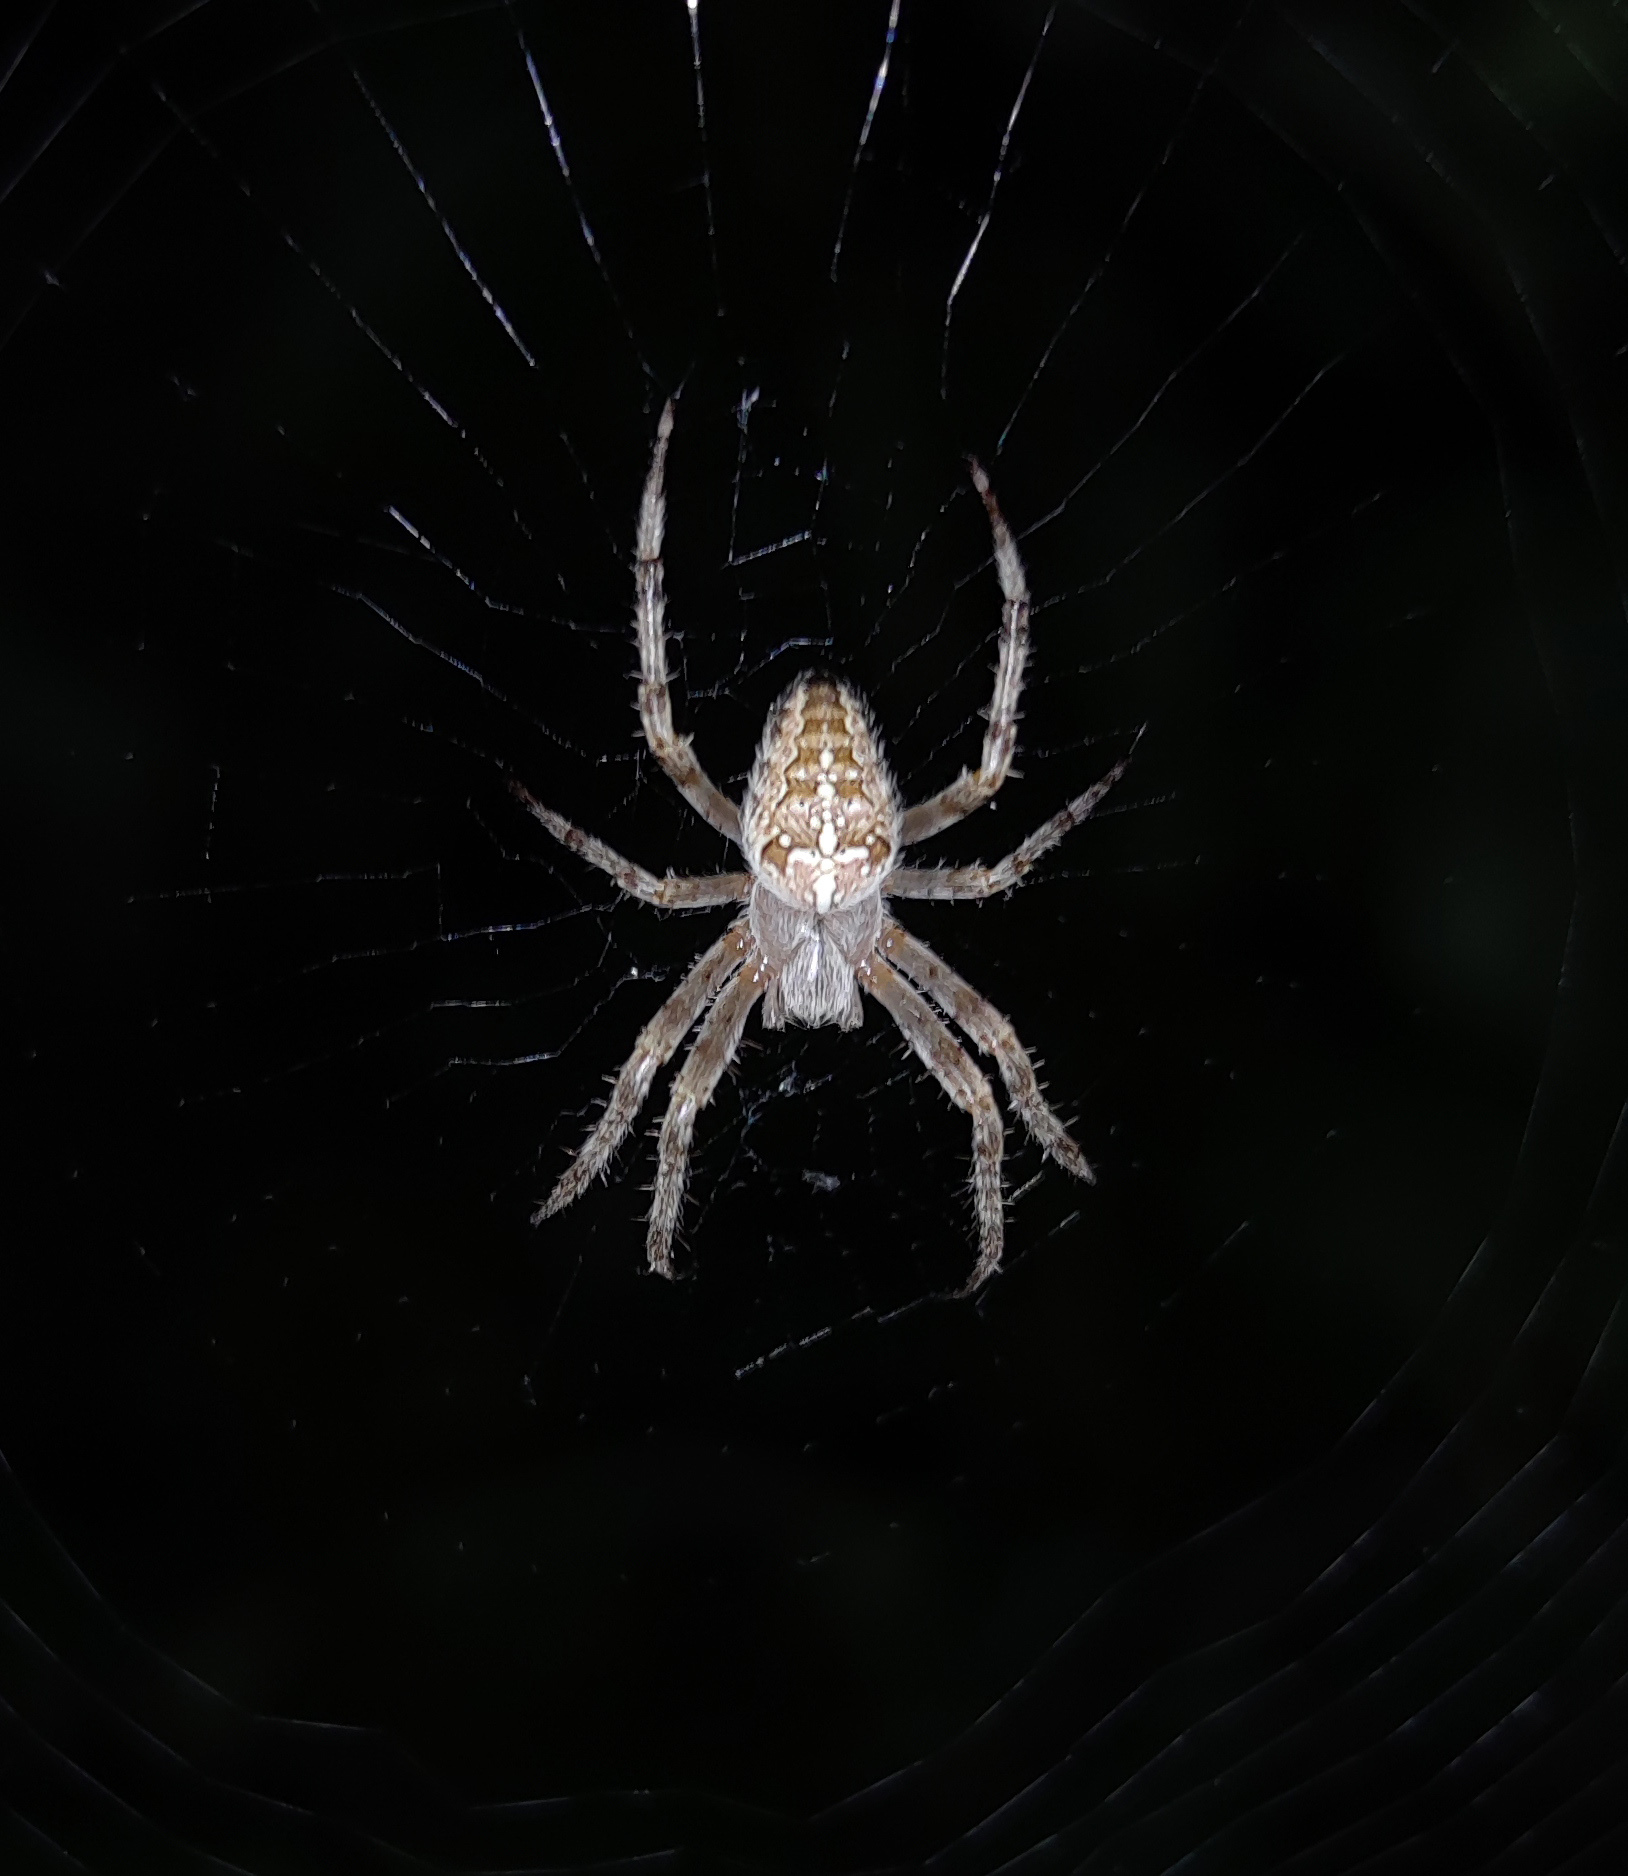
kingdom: Animalia
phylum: Arthropoda
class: Arachnida
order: Araneae
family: Araneidae
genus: Araneus
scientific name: Araneus diadematus
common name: Cross orbweaver
